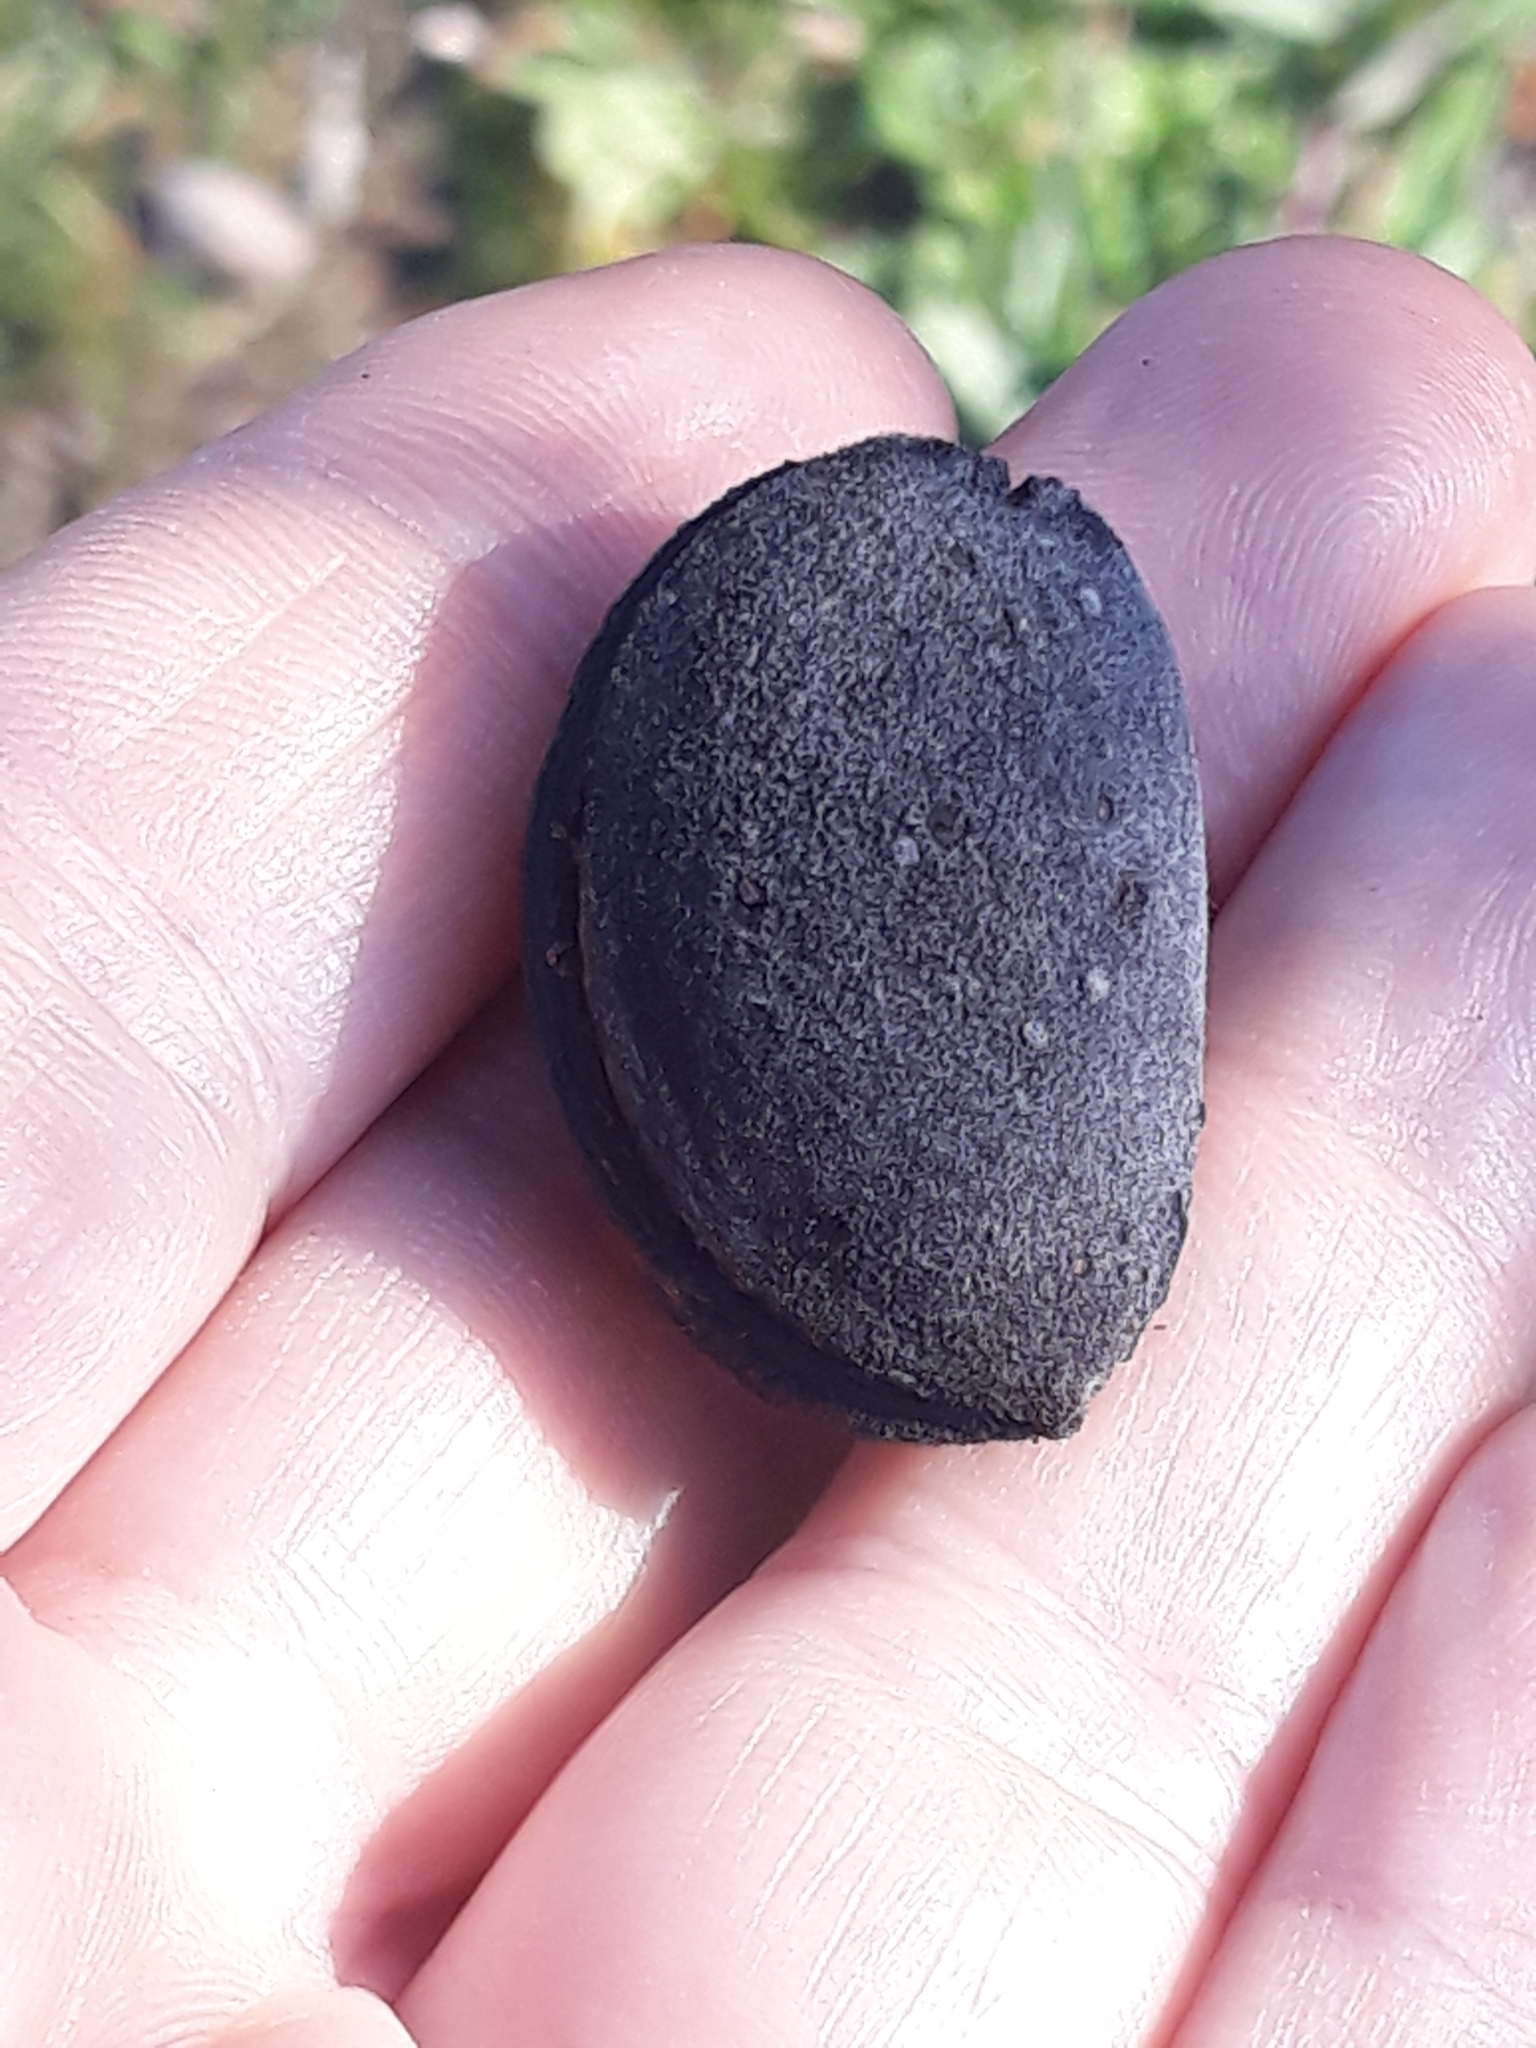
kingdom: Plantae
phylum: Tracheophyta
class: Magnoliopsida
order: Rosales
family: Rosaceae
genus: Prunus
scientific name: Prunus amygdalus
